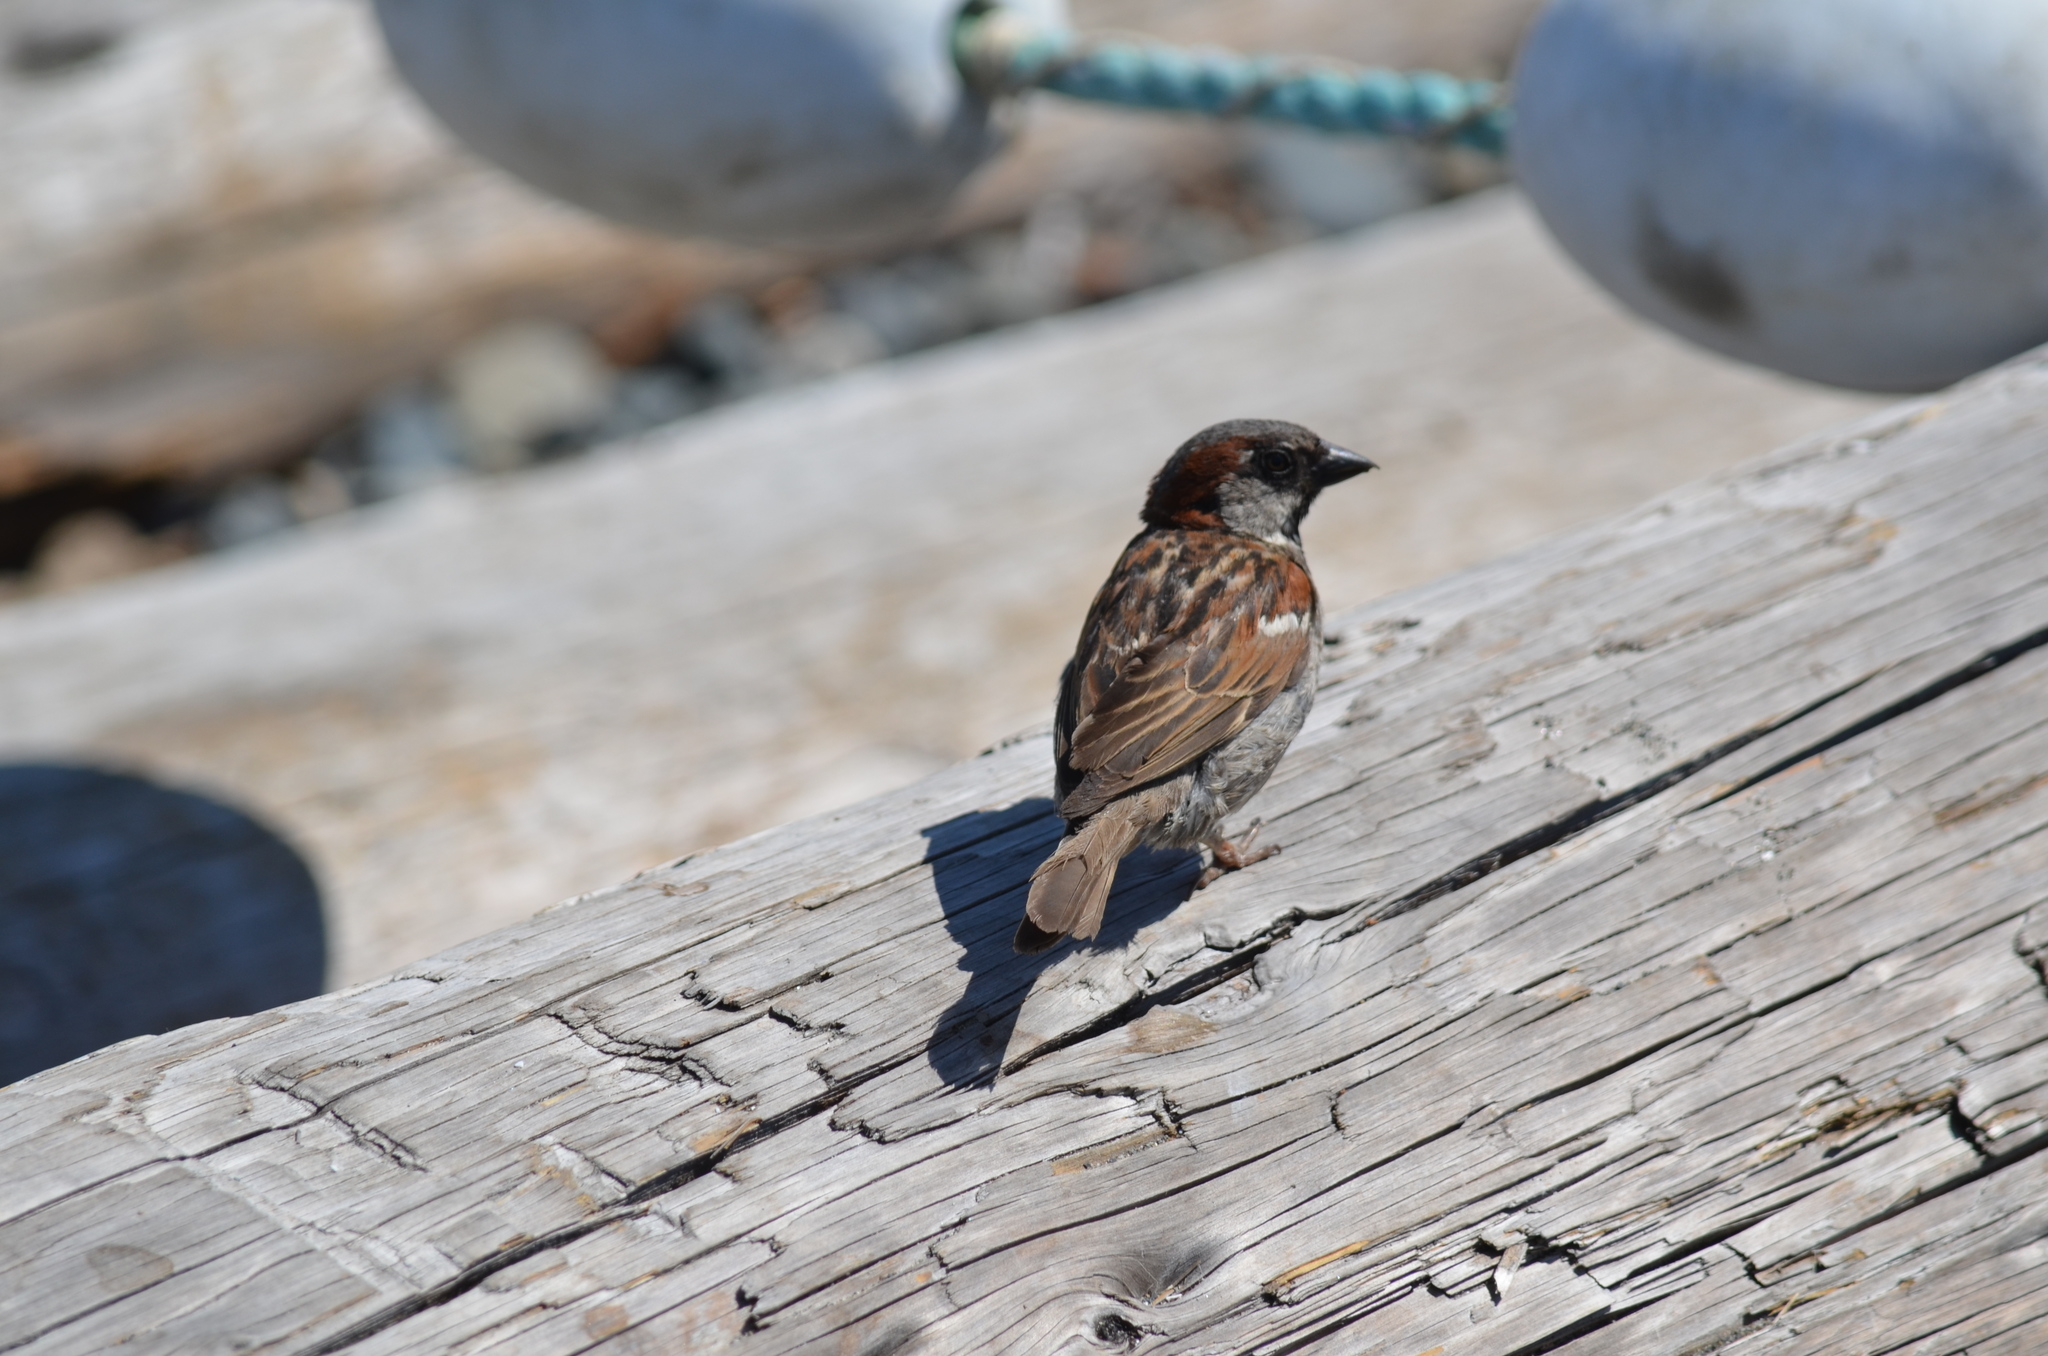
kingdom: Animalia
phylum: Chordata
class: Aves
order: Passeriformes
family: Passeridae
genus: Passer
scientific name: Passer domesticus
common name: House sparrow
